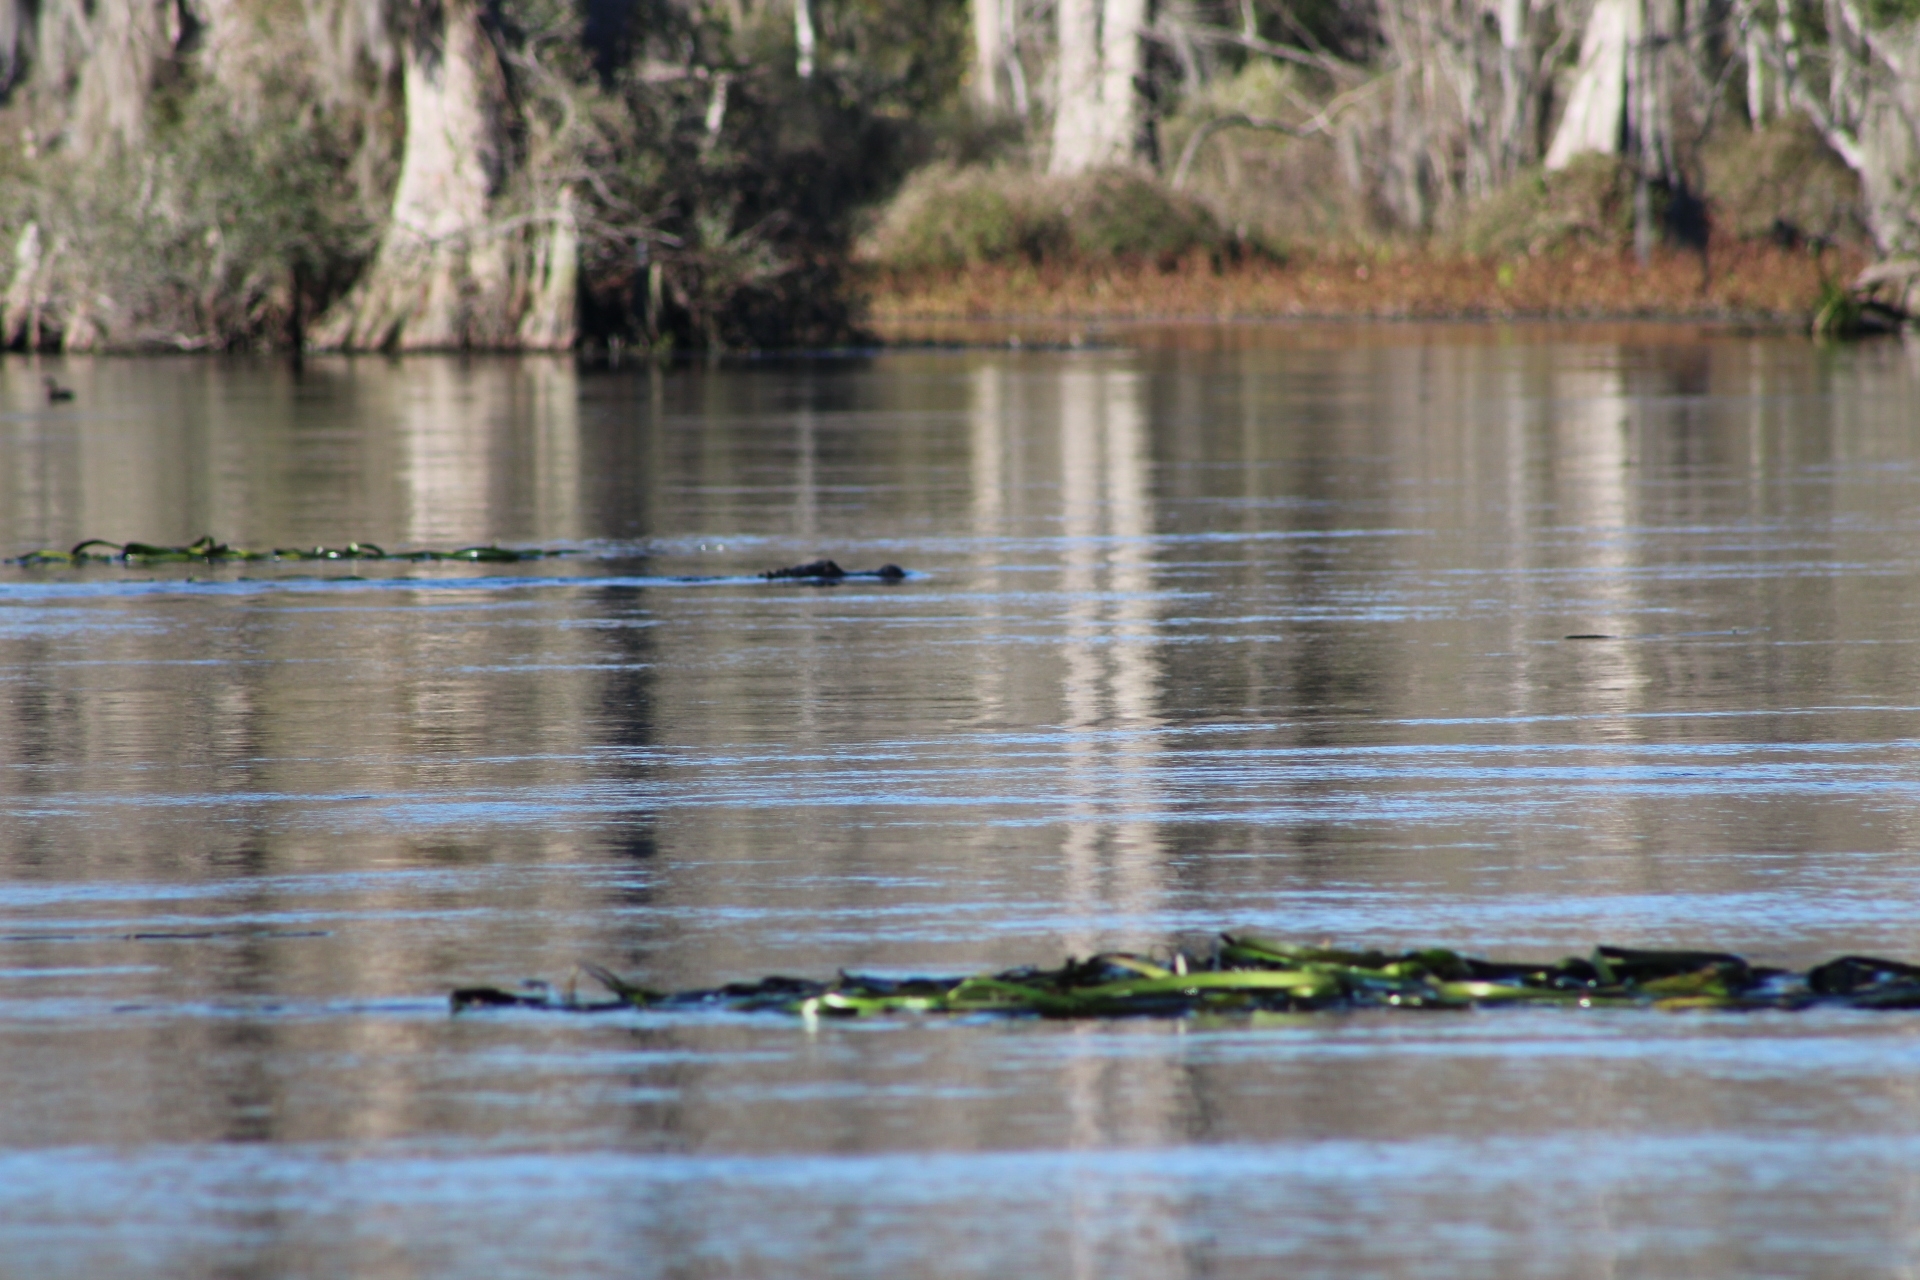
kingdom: Animalia
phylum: Chordata
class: Crocodylia
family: Alligatoridae
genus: Alligator
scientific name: Alligator mississippiensis
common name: American alligator
